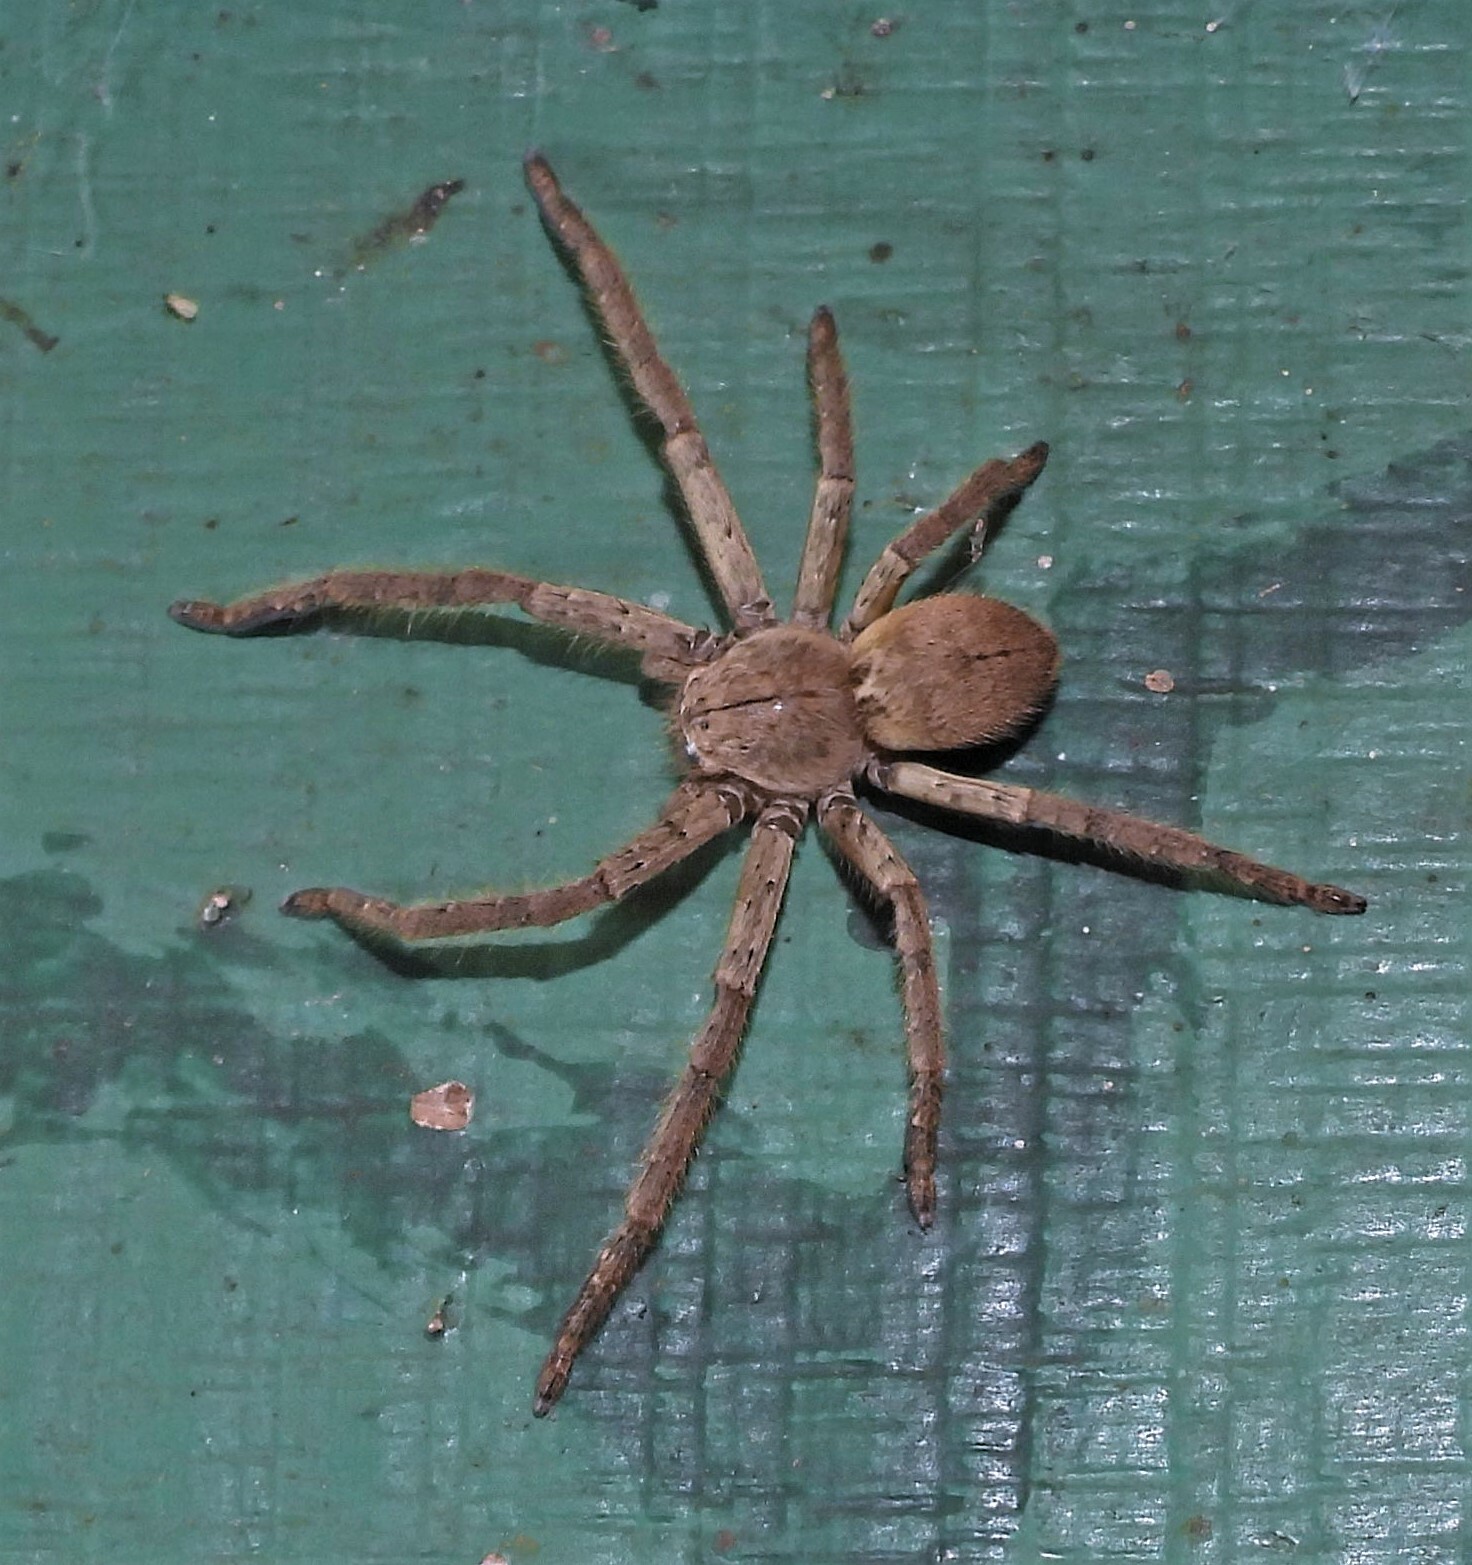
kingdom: Animalia
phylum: Arthropoda
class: Arachnida
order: Araneae
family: Sparassidae
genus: Polybetes
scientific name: Polybetes rapidus
